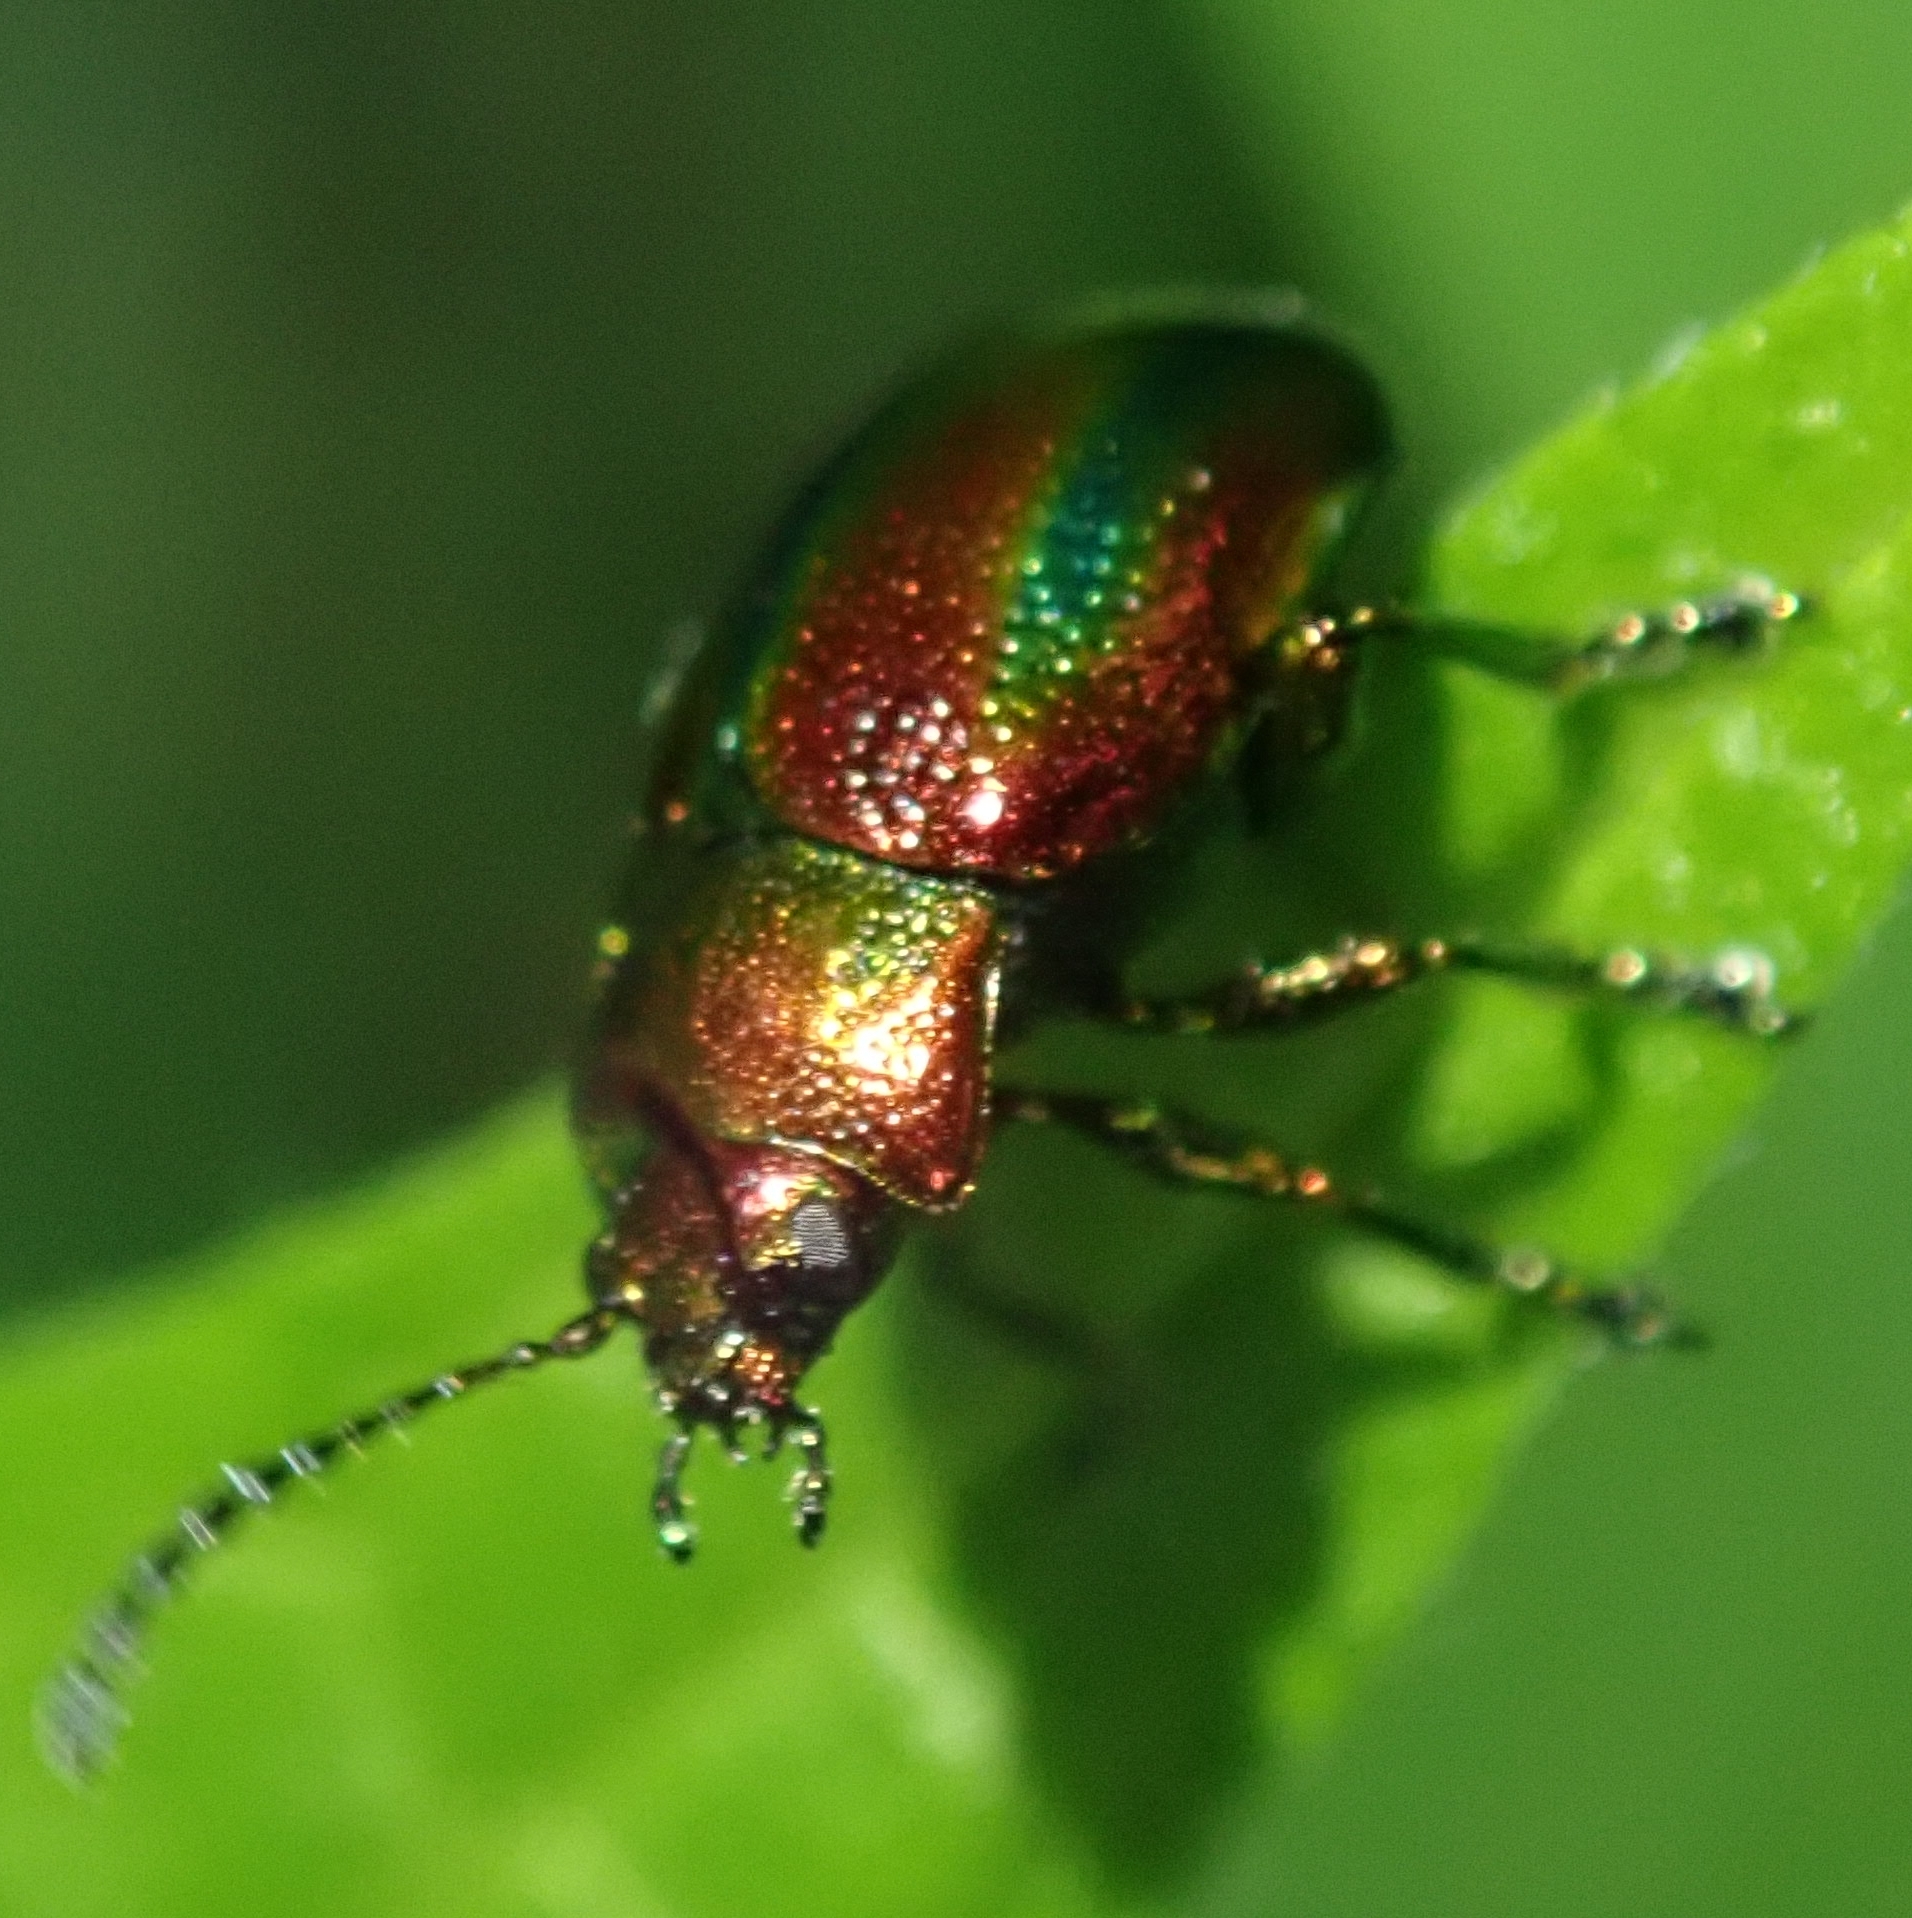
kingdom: Animalia
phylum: Arthropoda
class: Insecta
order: Coleoptera
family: Chrysomelidae
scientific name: Chrysomelidae
